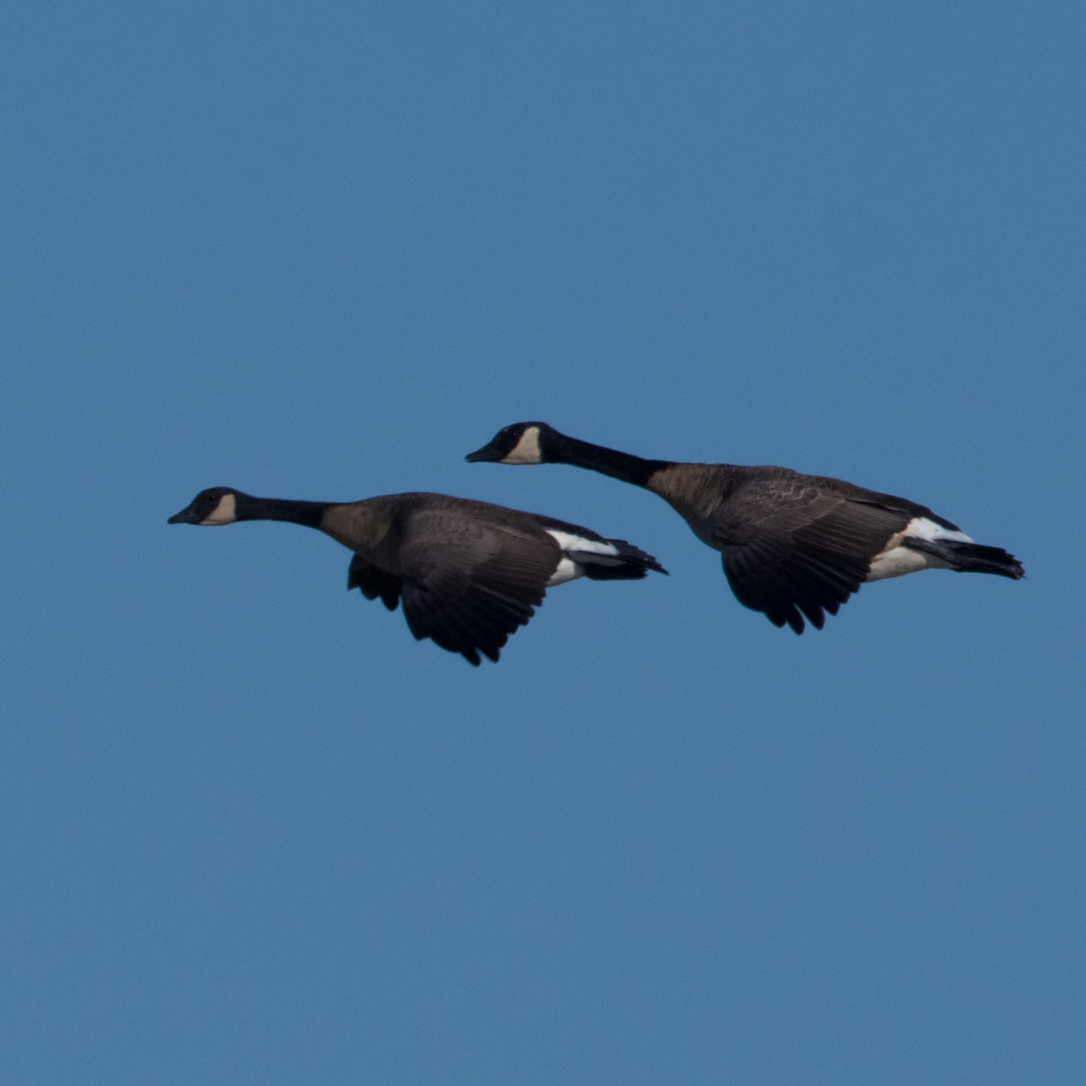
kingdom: Animalia
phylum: Chordata
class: Aves
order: Anseriformes
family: Anatidae
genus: Branta
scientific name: Branta canadensis
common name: Canada goose
